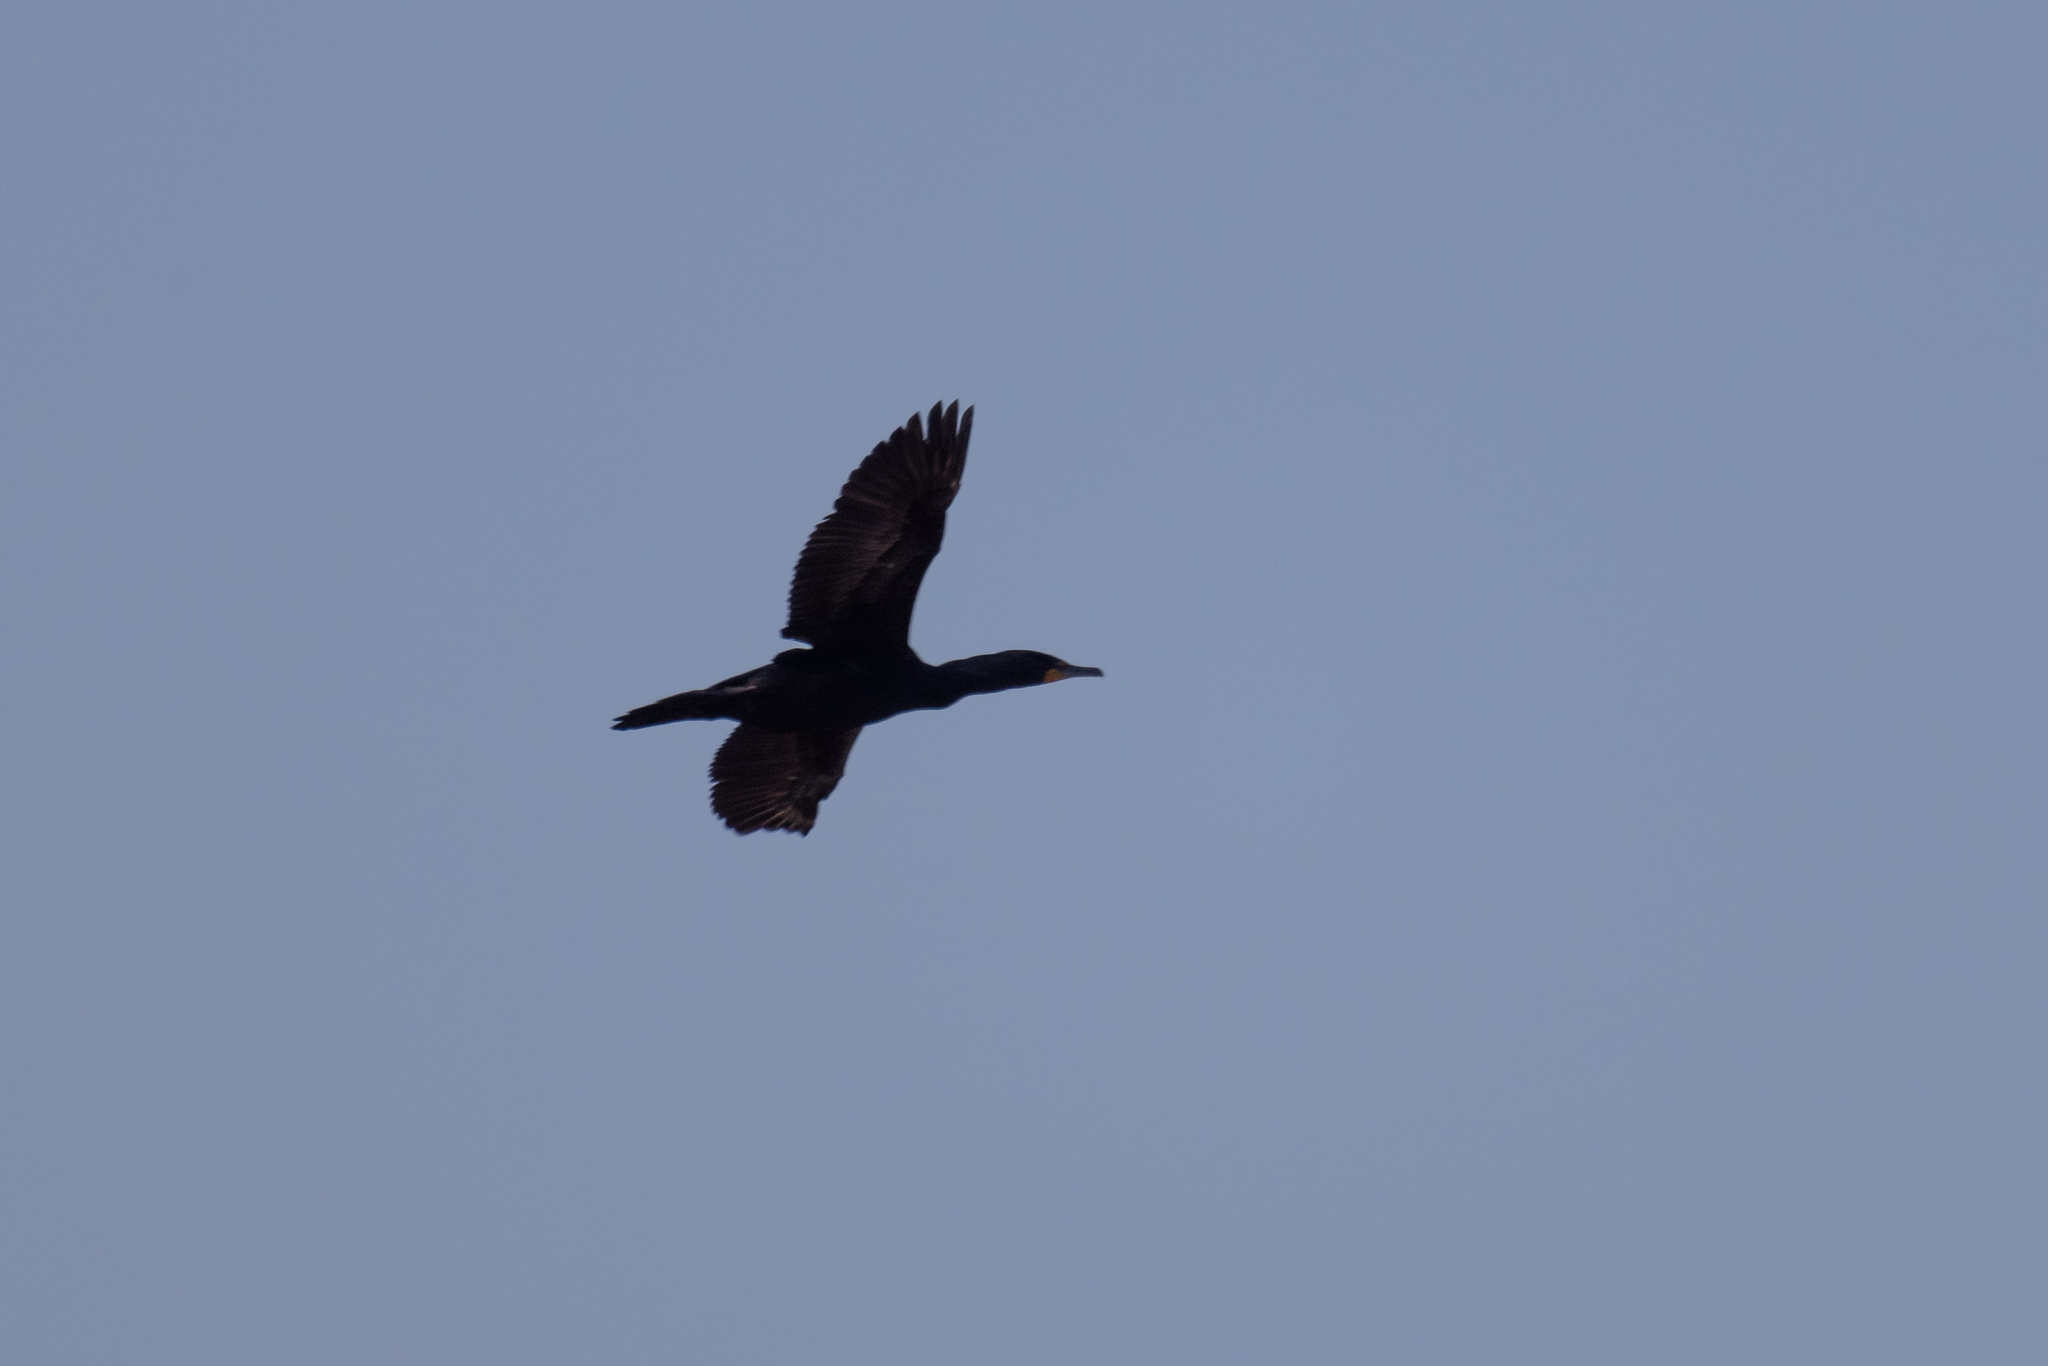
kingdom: Animalia
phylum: Chordata
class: Aves
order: Suliformes
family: Phalacrocoracidae
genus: Phalacrocorax
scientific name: Phalacrocorax auritus
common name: Double-crested cormorant
